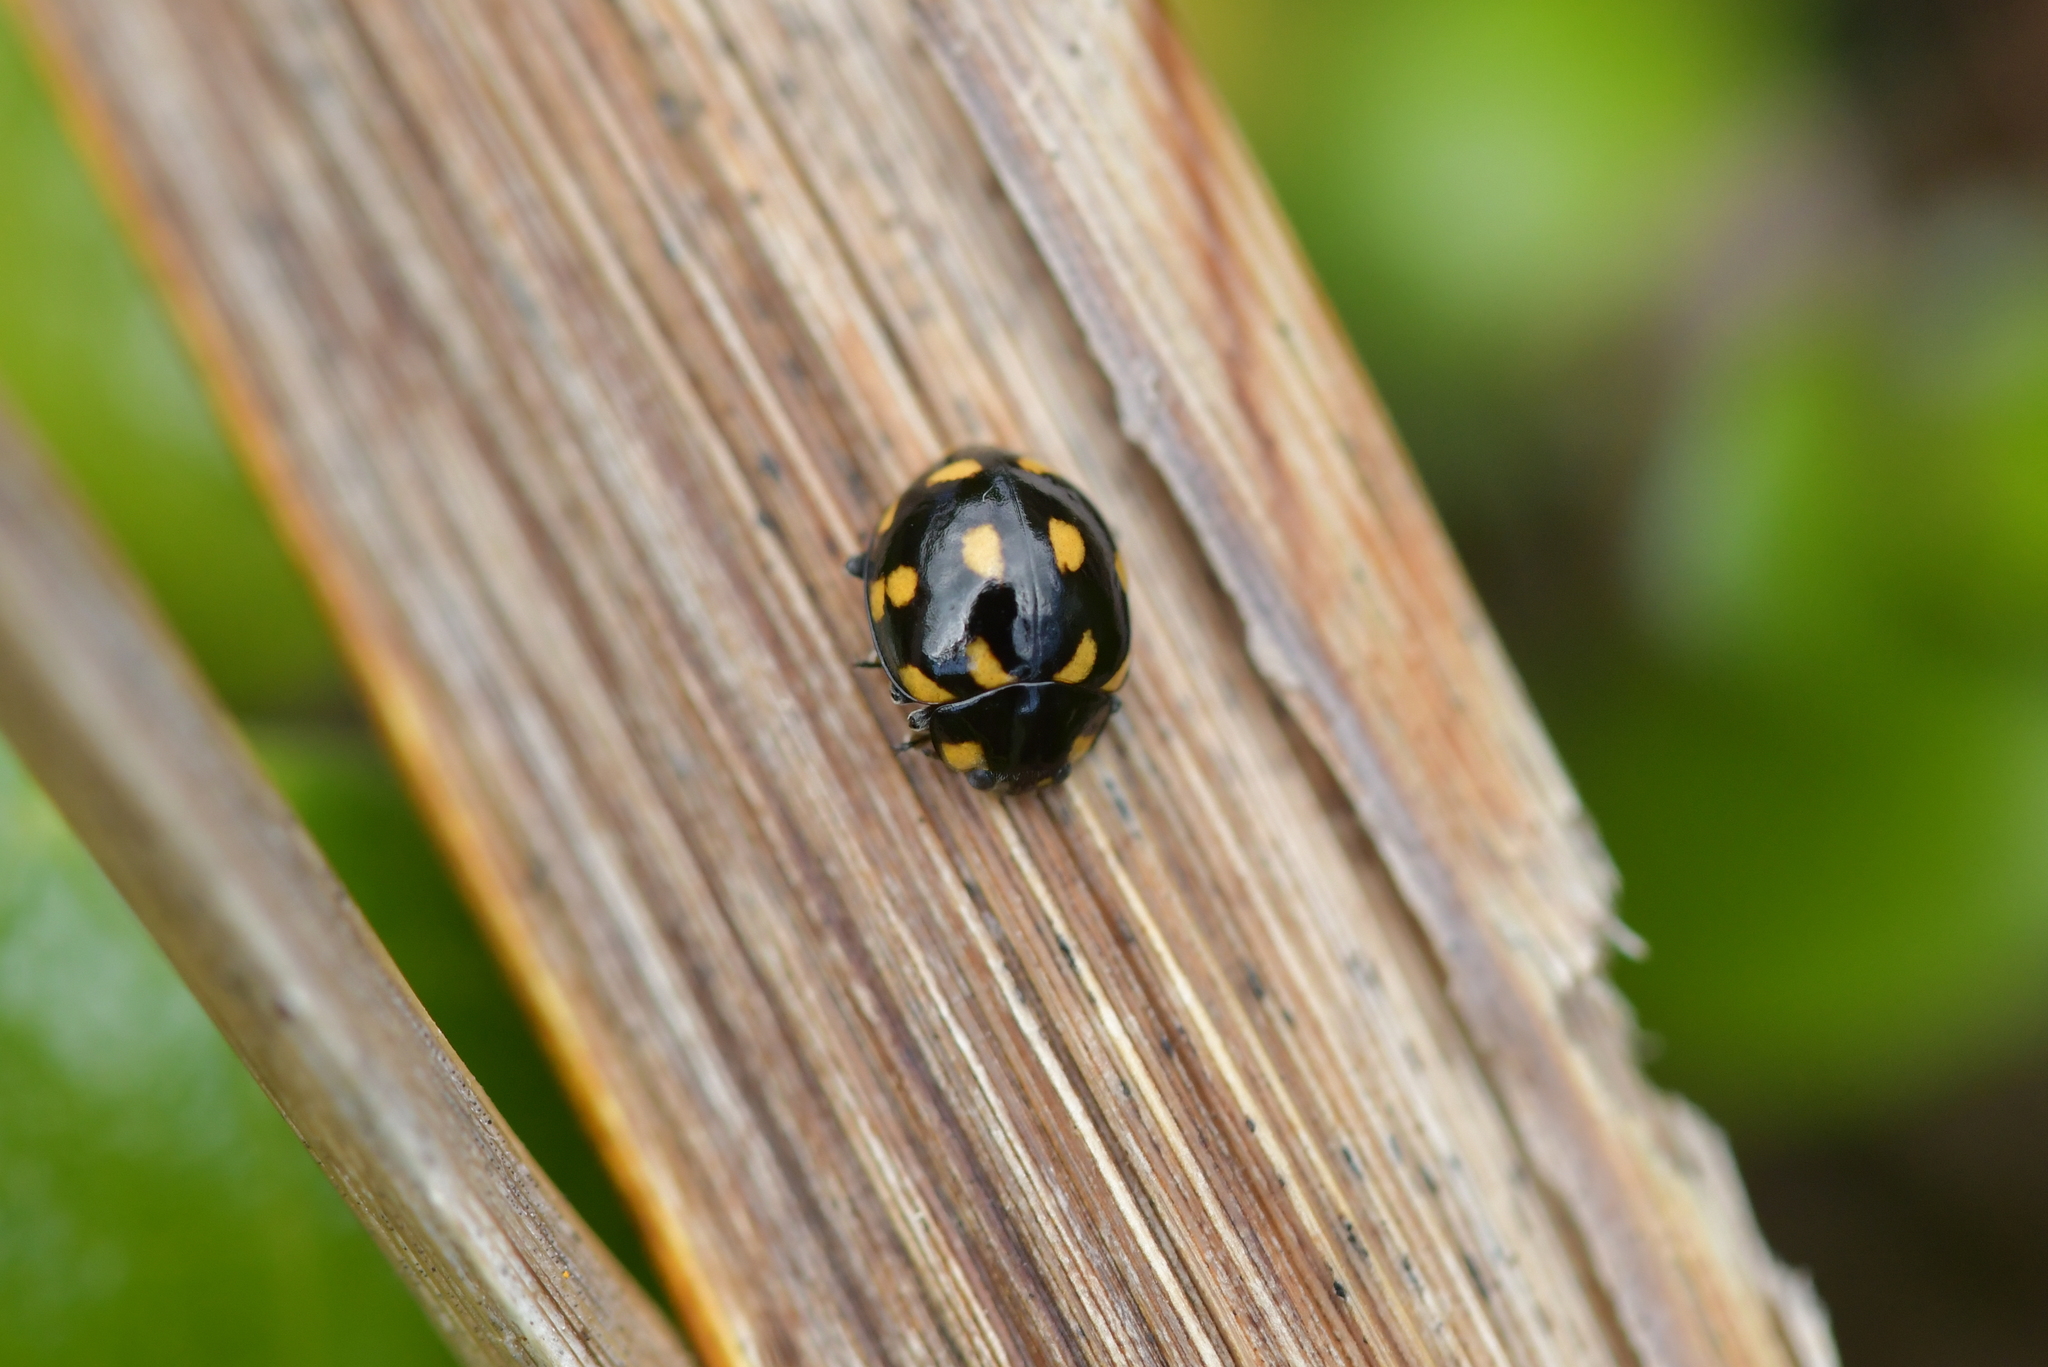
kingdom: Animalia
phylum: Arthropoda
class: Insecta
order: Coleoptera
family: Coccinellidae
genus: Coccinella
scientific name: Coccinella leonina
